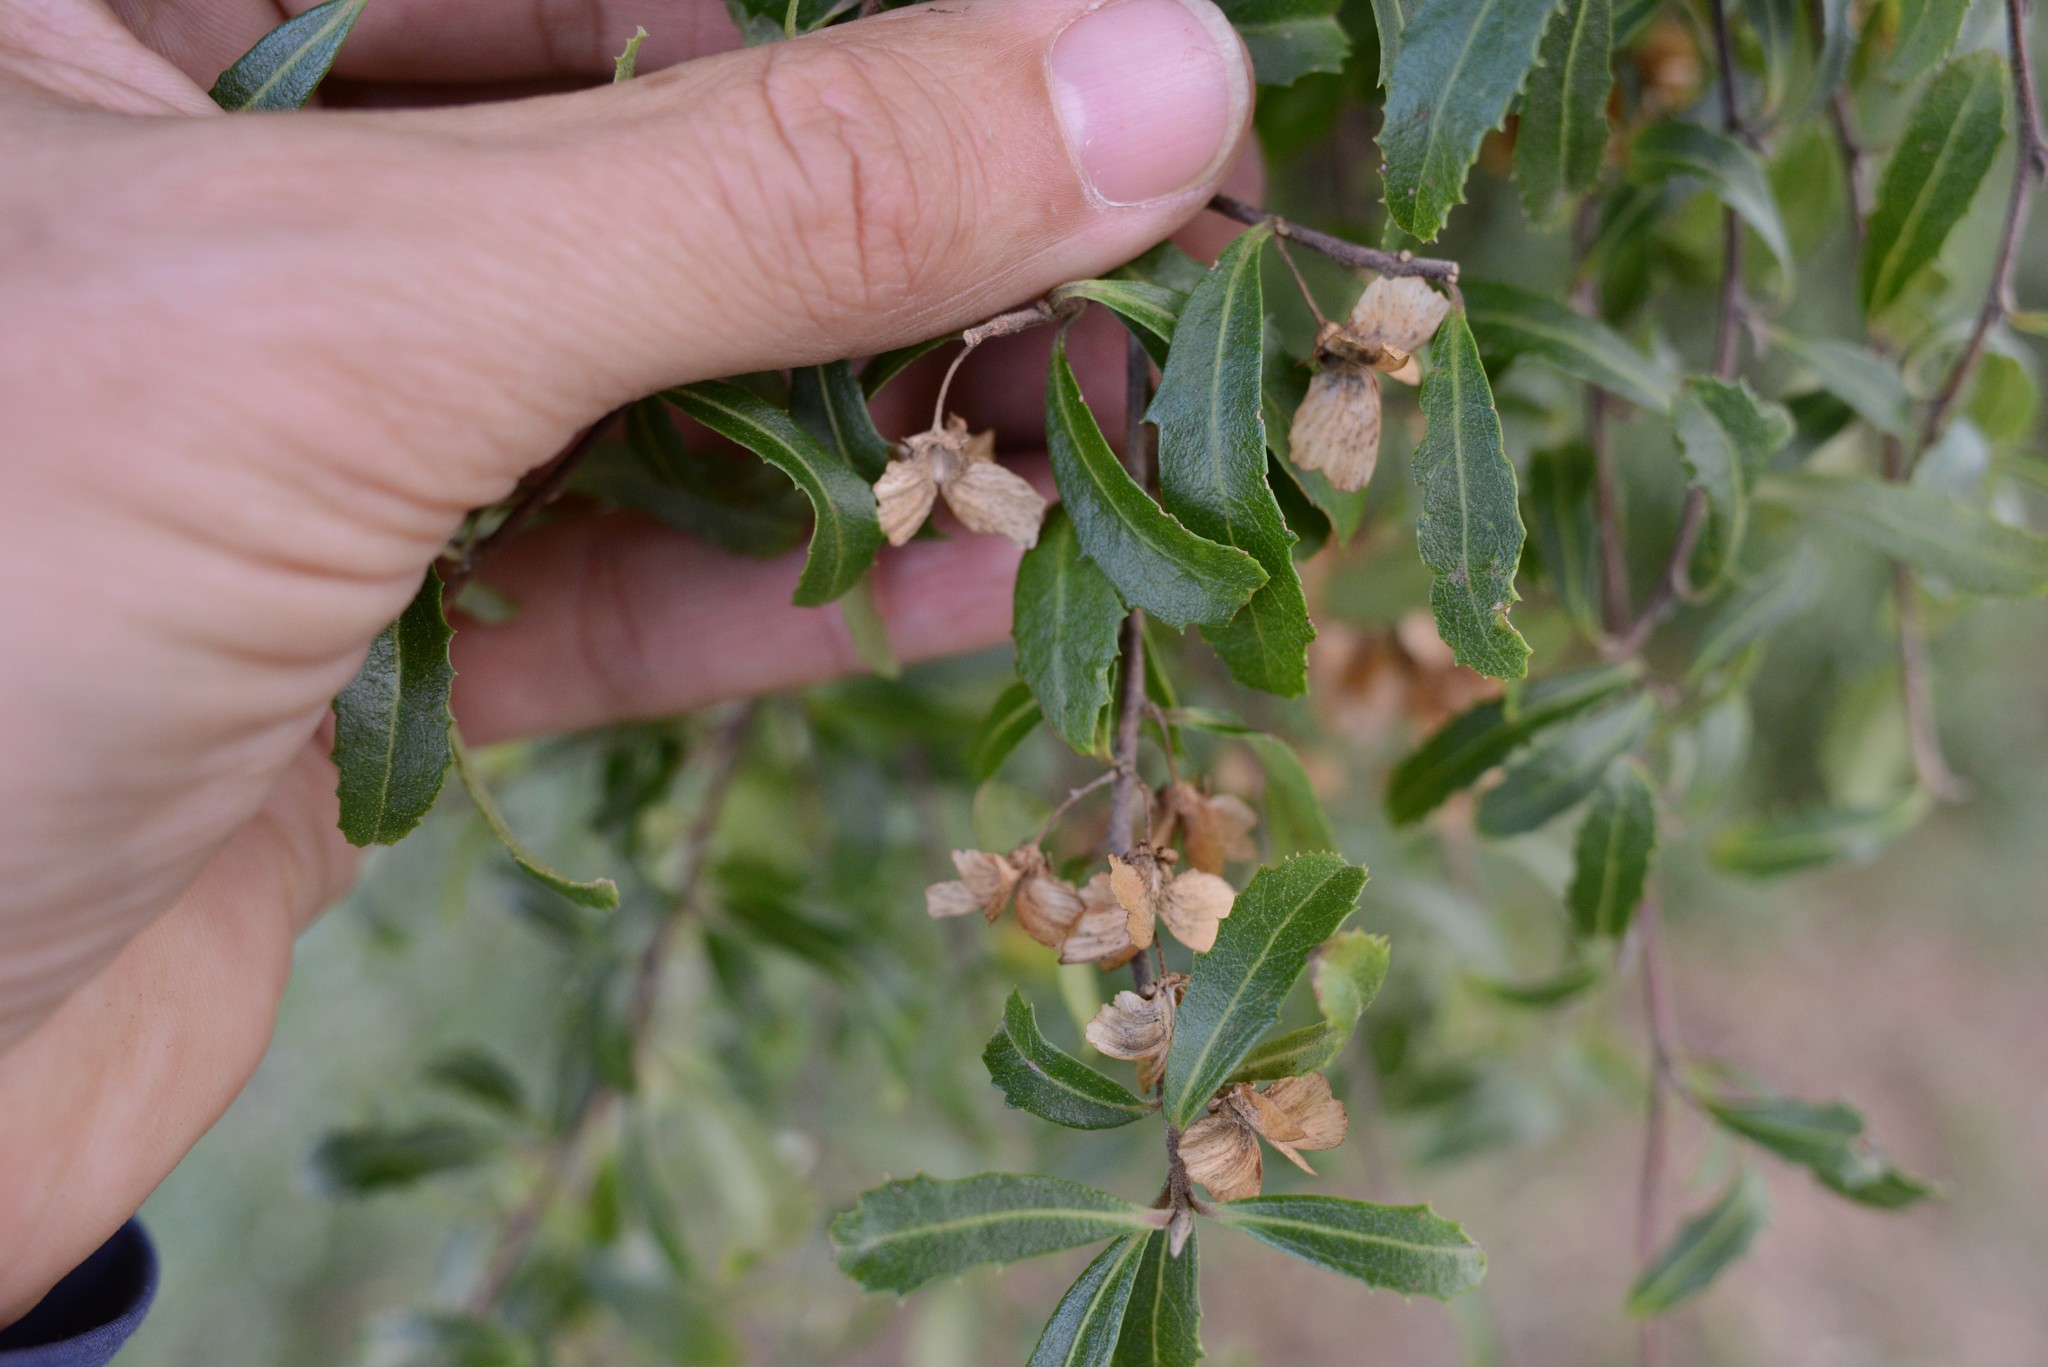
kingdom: Plantae
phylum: Tracheophyta
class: Magnoliopsida
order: Malvales
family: Malvaceae
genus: Hoheria
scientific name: Hoheria angustifolia
